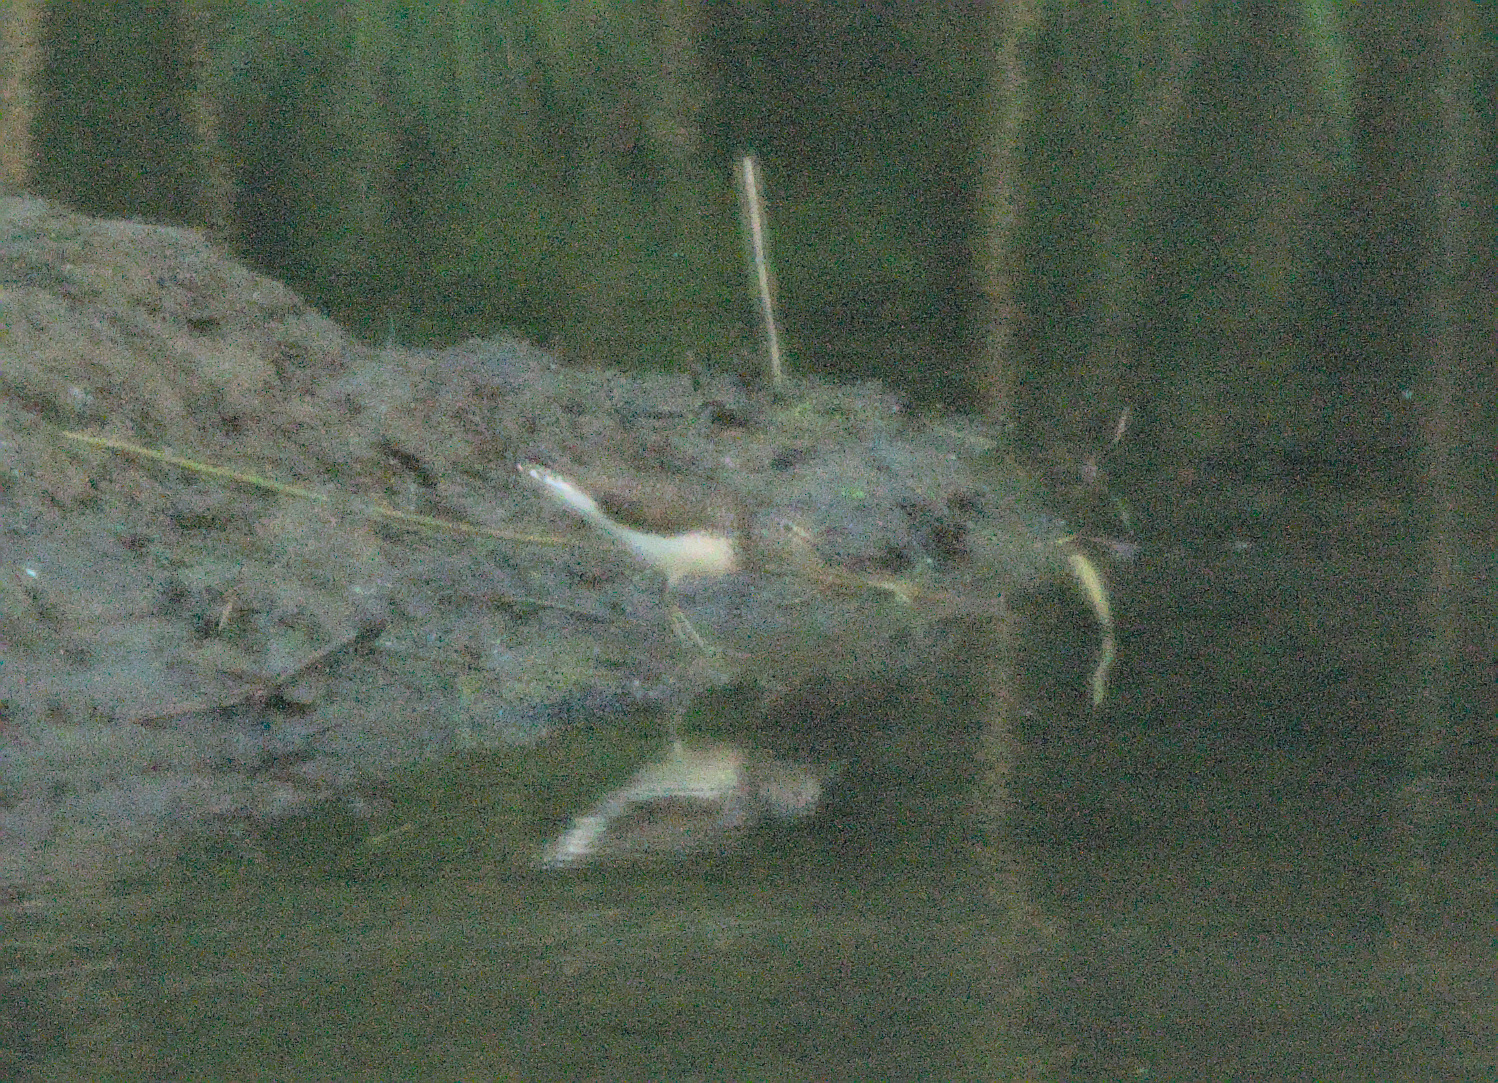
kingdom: Animalia
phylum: Chordata
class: Aves
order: Charadriiformes
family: Scolopacidae
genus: Tringa
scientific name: Tringa ochropus
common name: Green sandpiper
